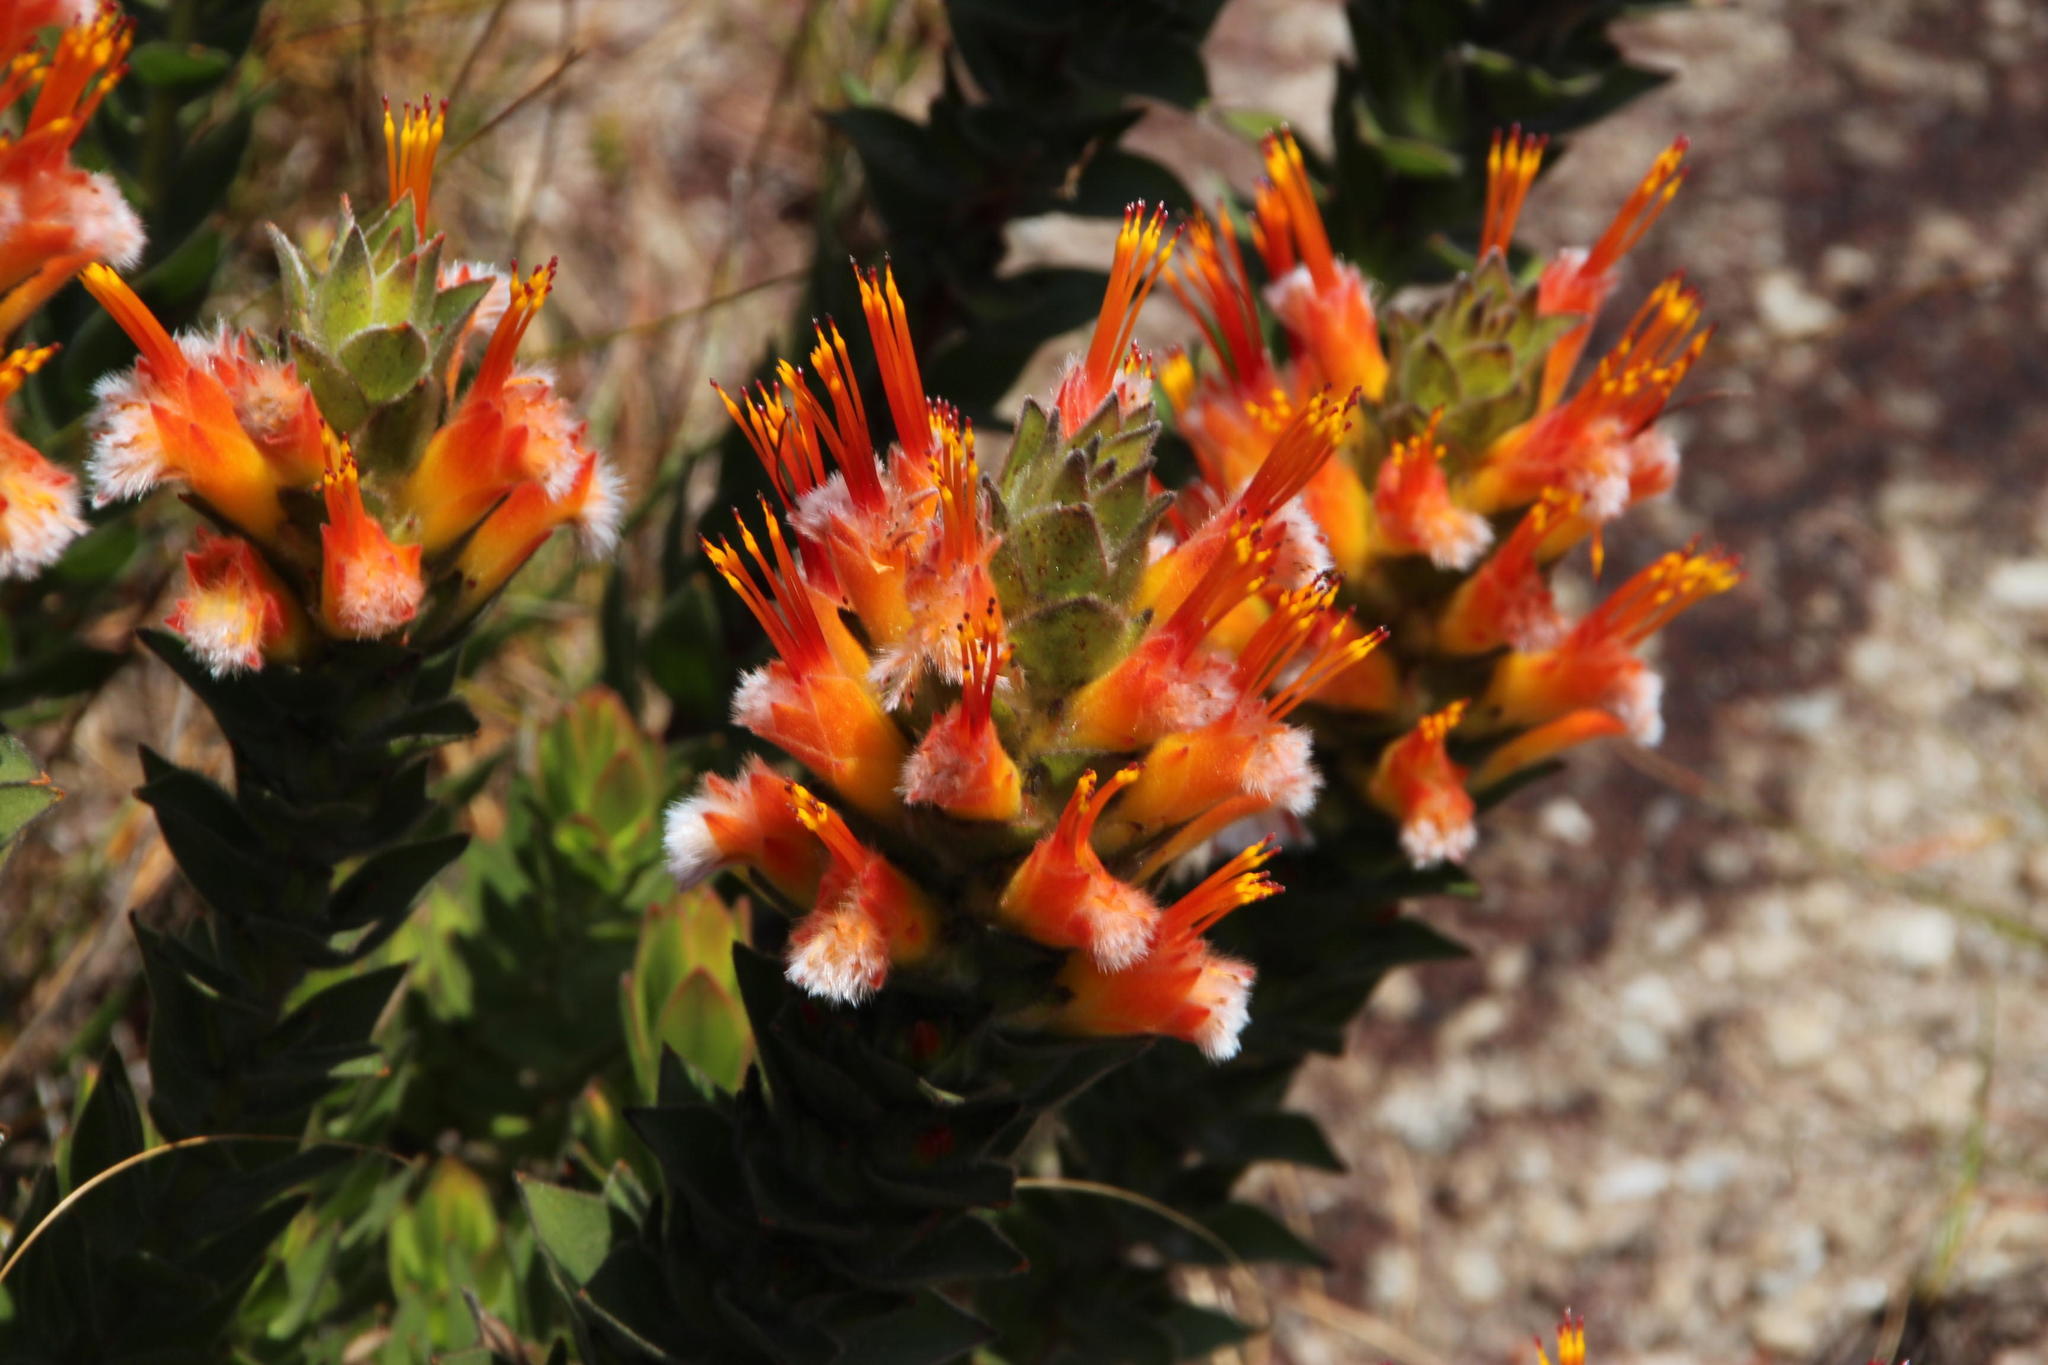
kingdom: Plantae
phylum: Tracheophyta
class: Magnoliopsida
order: Proteales
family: Proteaceae
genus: Mimetes
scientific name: Mimetes capitulatus
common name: Conical pagoda
